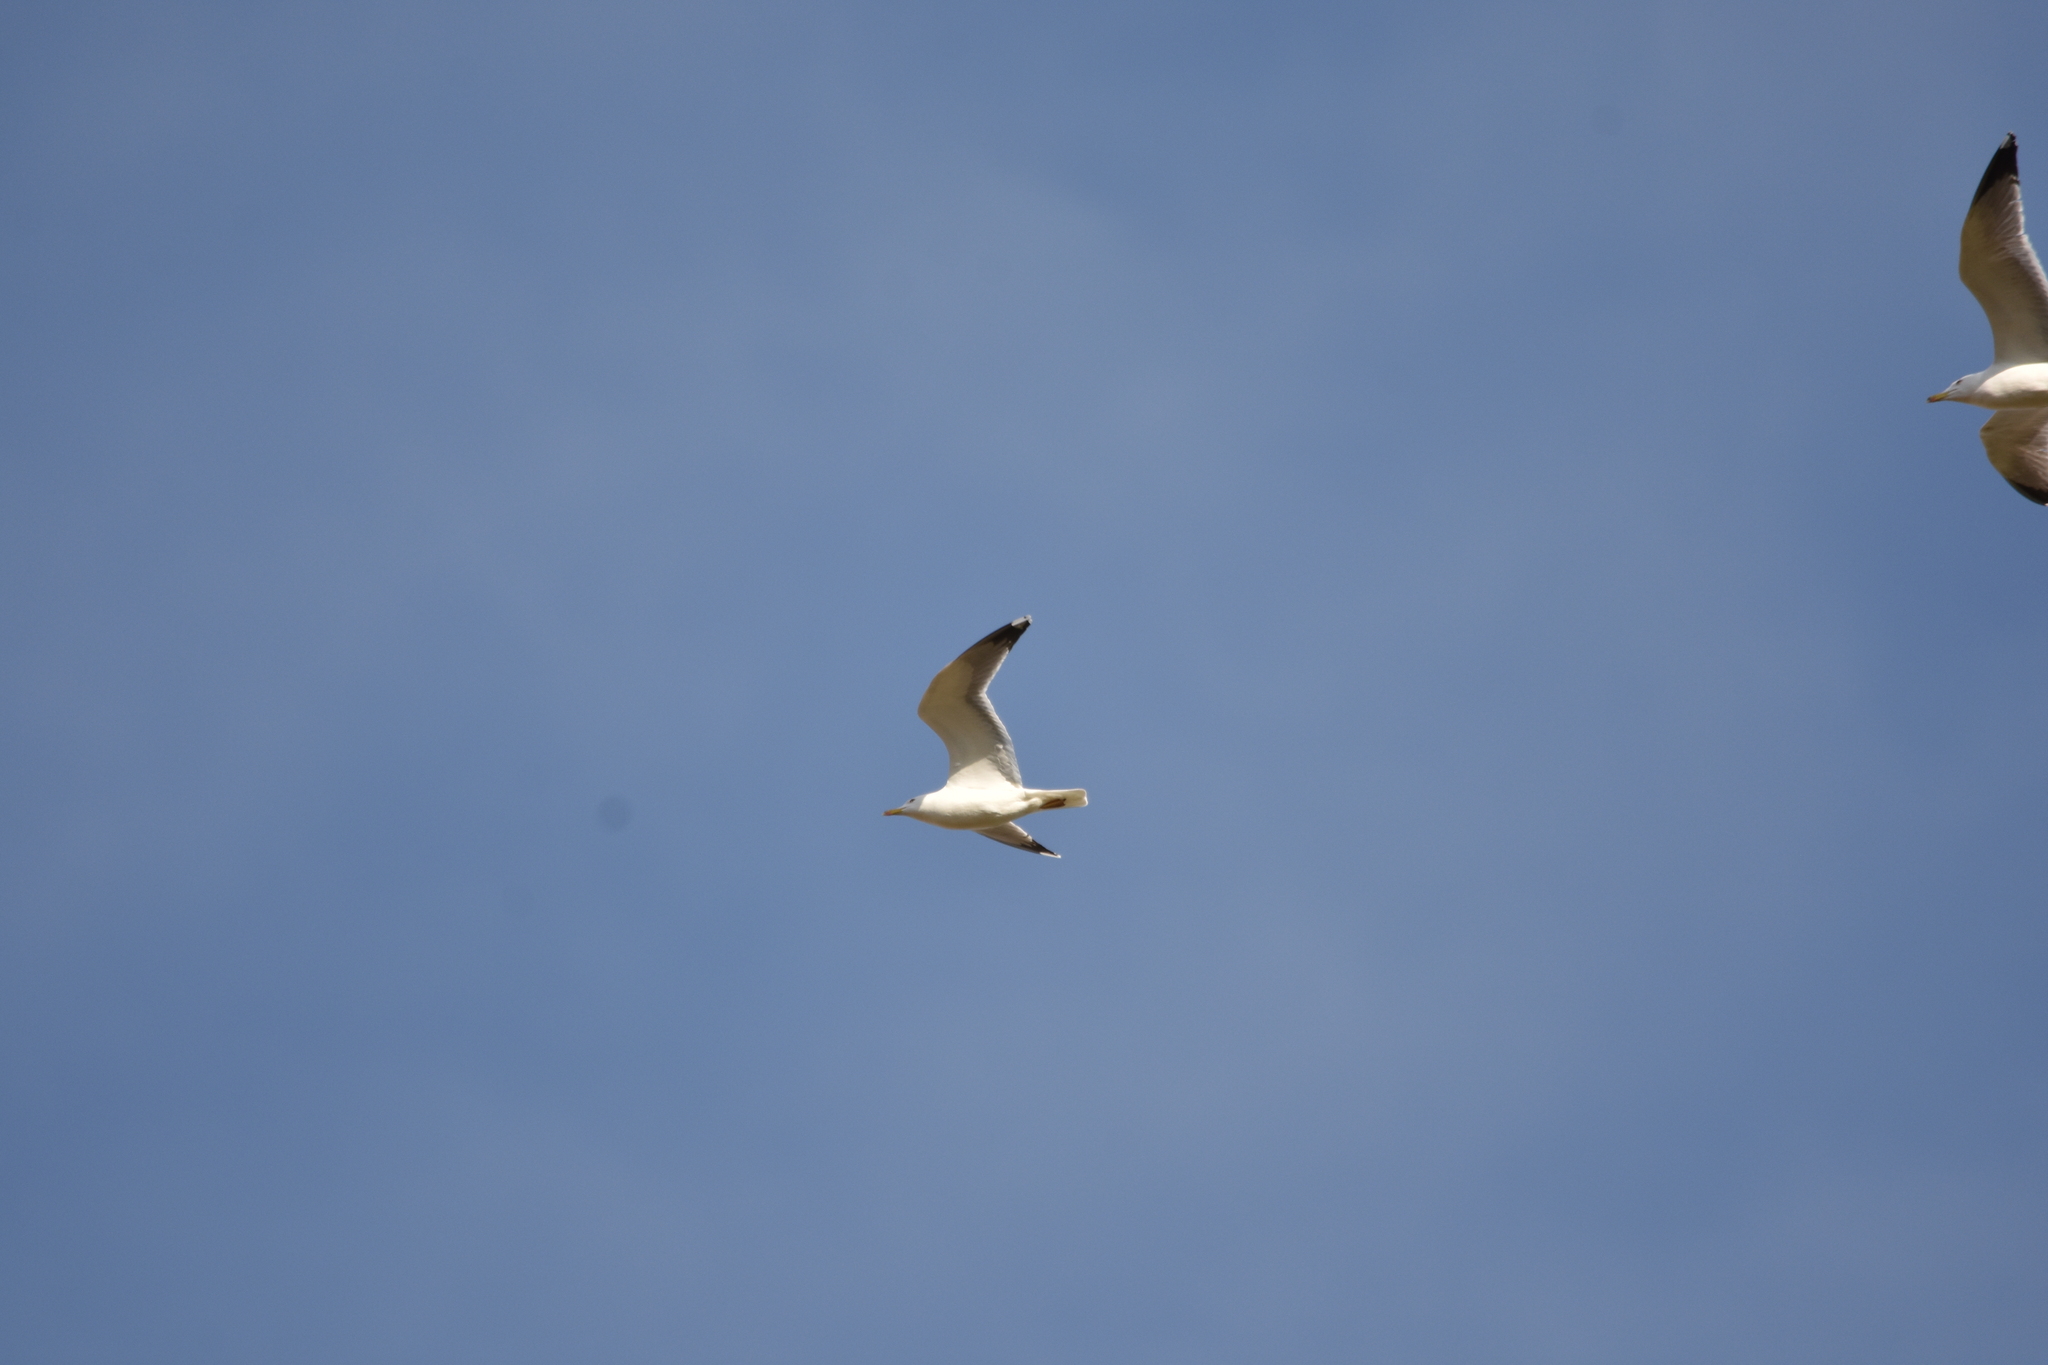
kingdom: Animalia
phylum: Chordata
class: Aves
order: Charadriiformes
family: Laridae
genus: Larus
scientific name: Larus michahellis
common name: Yellow-legged gull
